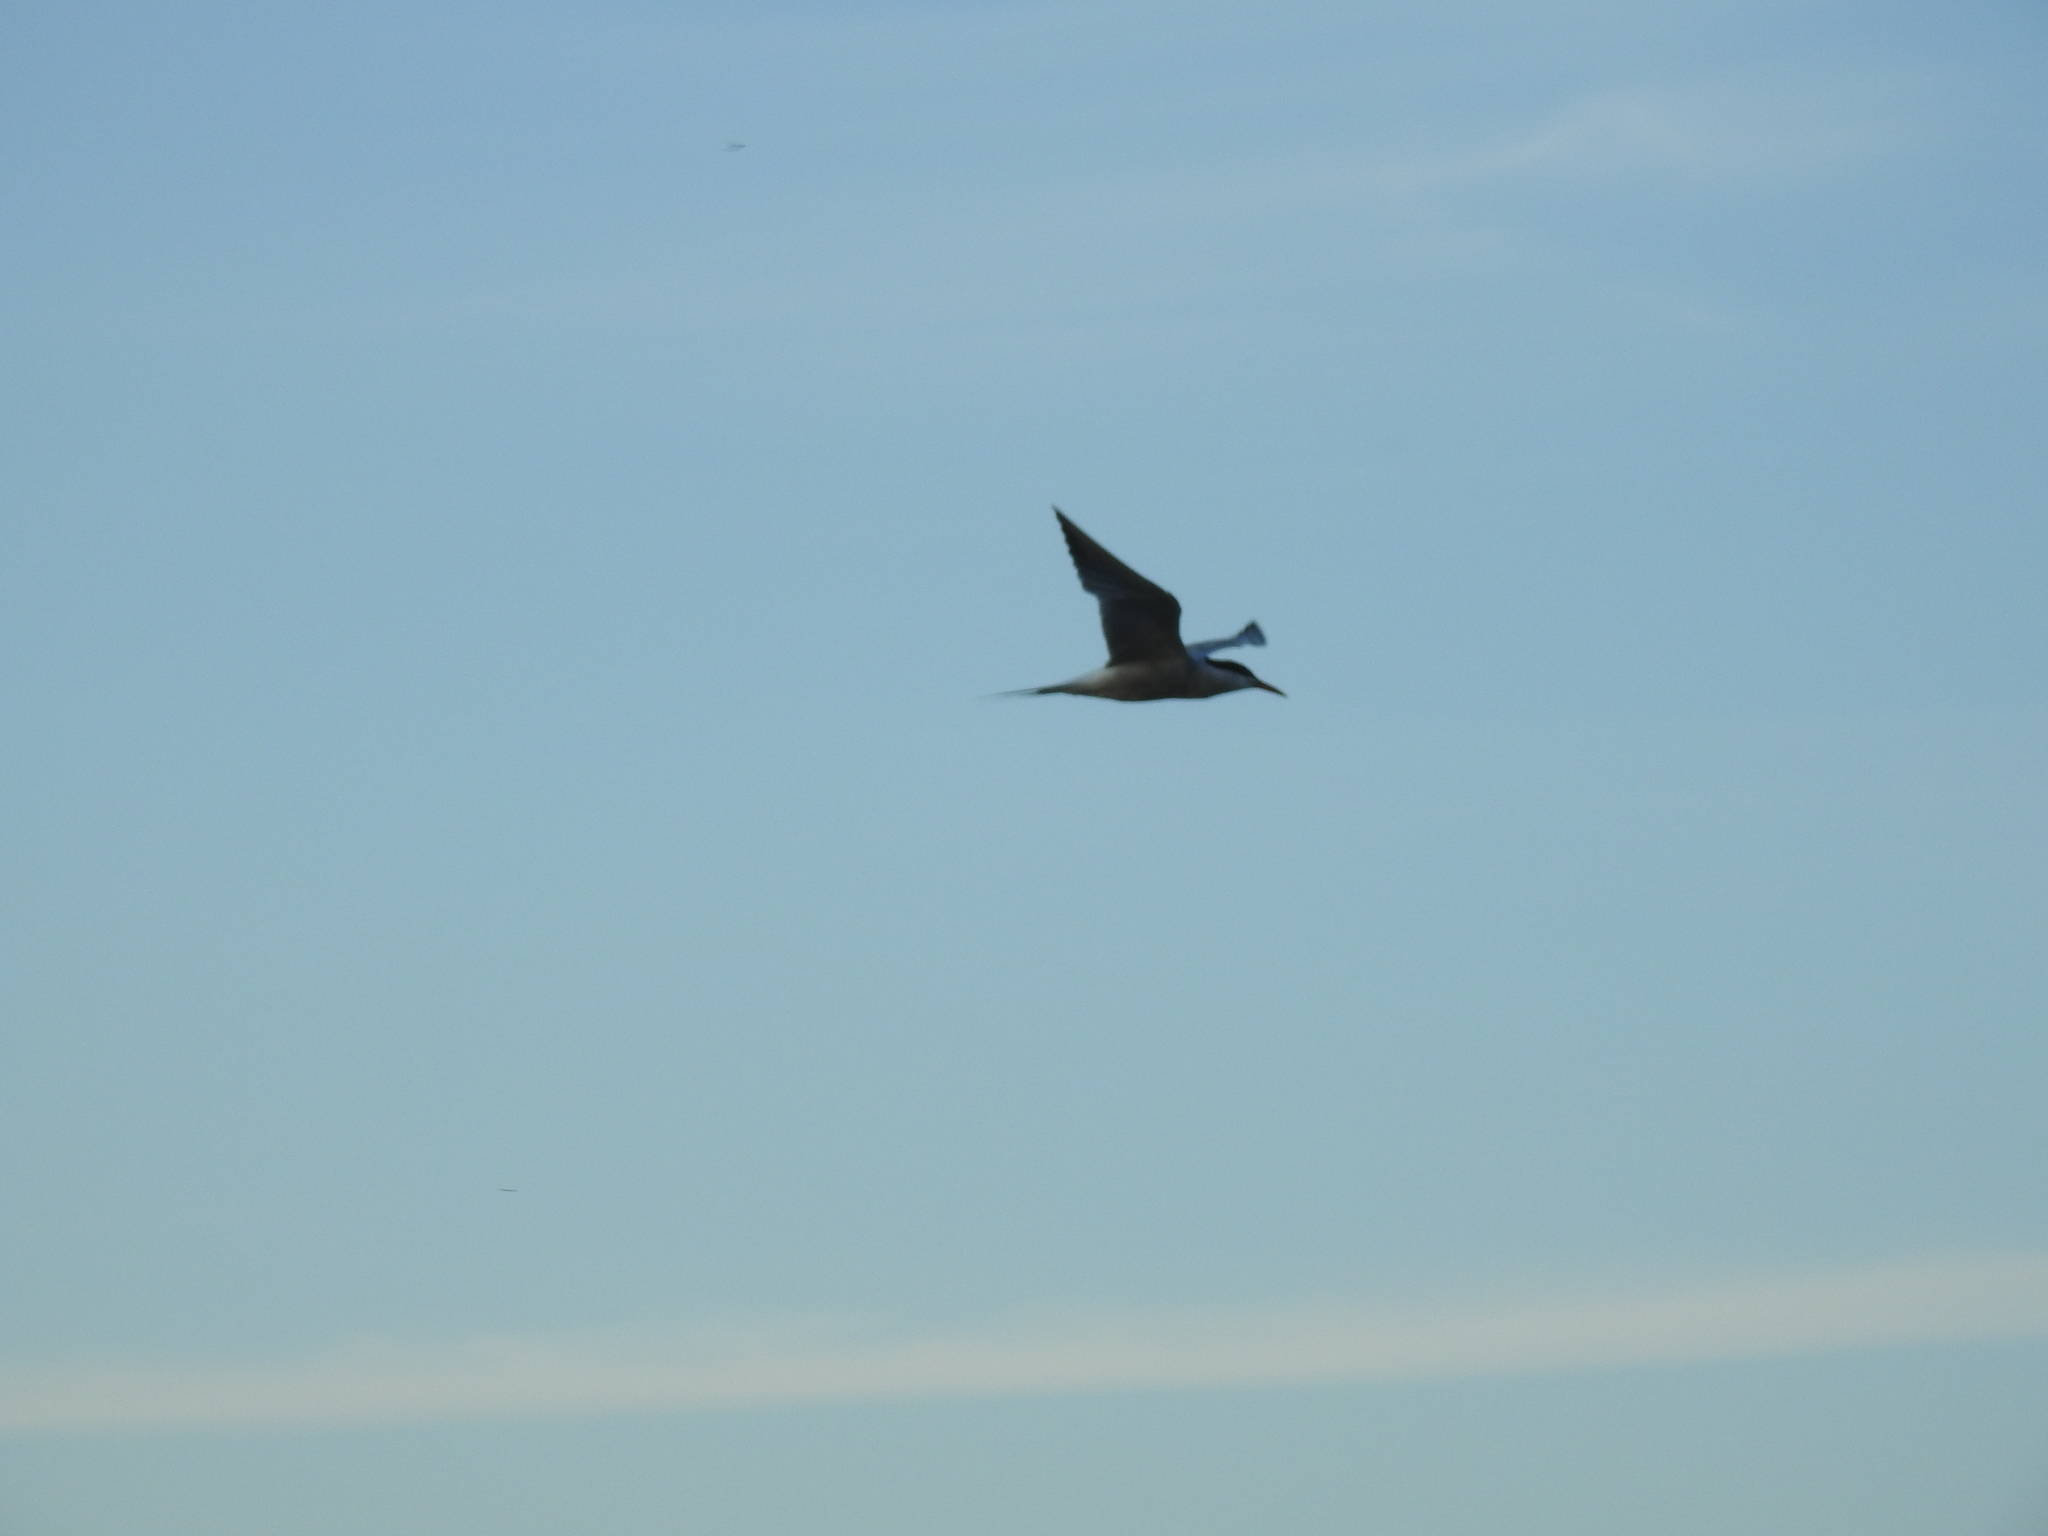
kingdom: Animalia
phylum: Chordata
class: Aves
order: Charadriiformes
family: Laridae
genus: Sterna
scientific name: Sterna hirundo
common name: Common tern
